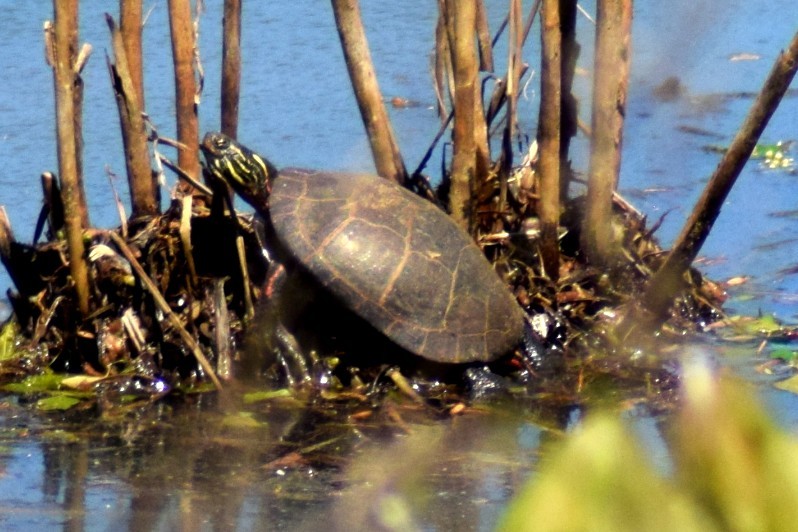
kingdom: Animalia
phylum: Chordata
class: Testudines
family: Emydidae
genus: Chrysemys
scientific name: Chrysemys picta
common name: Painted turtle
